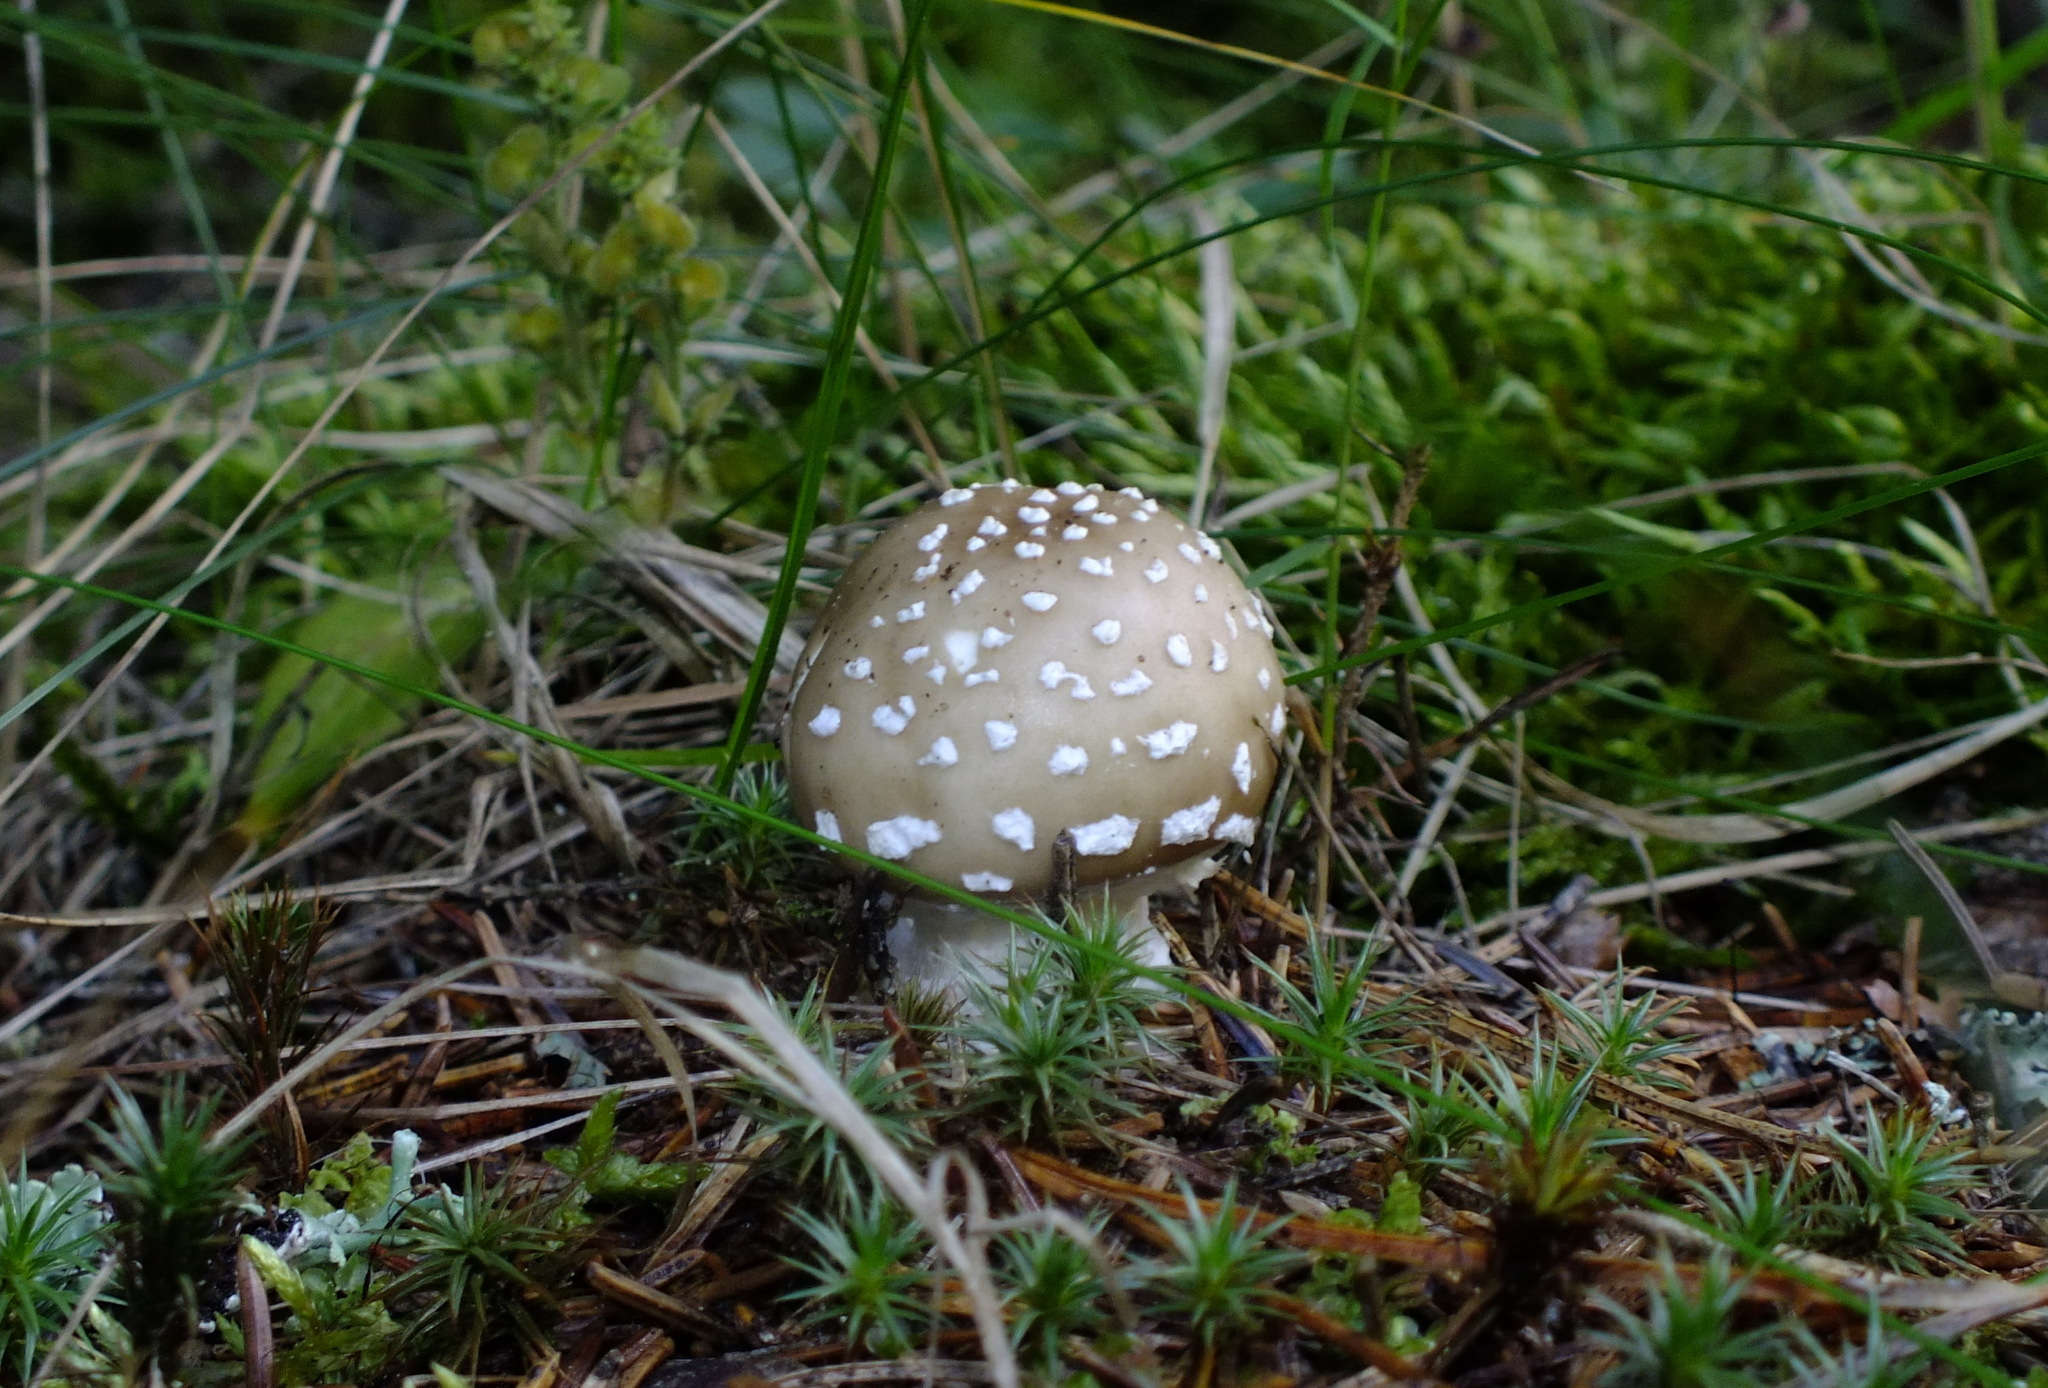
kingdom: Fungi
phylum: Basidiomycota
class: Agaricomycetes
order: Agaricales
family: Amanitaceae
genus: Amanita
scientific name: Amanita pantherina
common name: Panthercap
